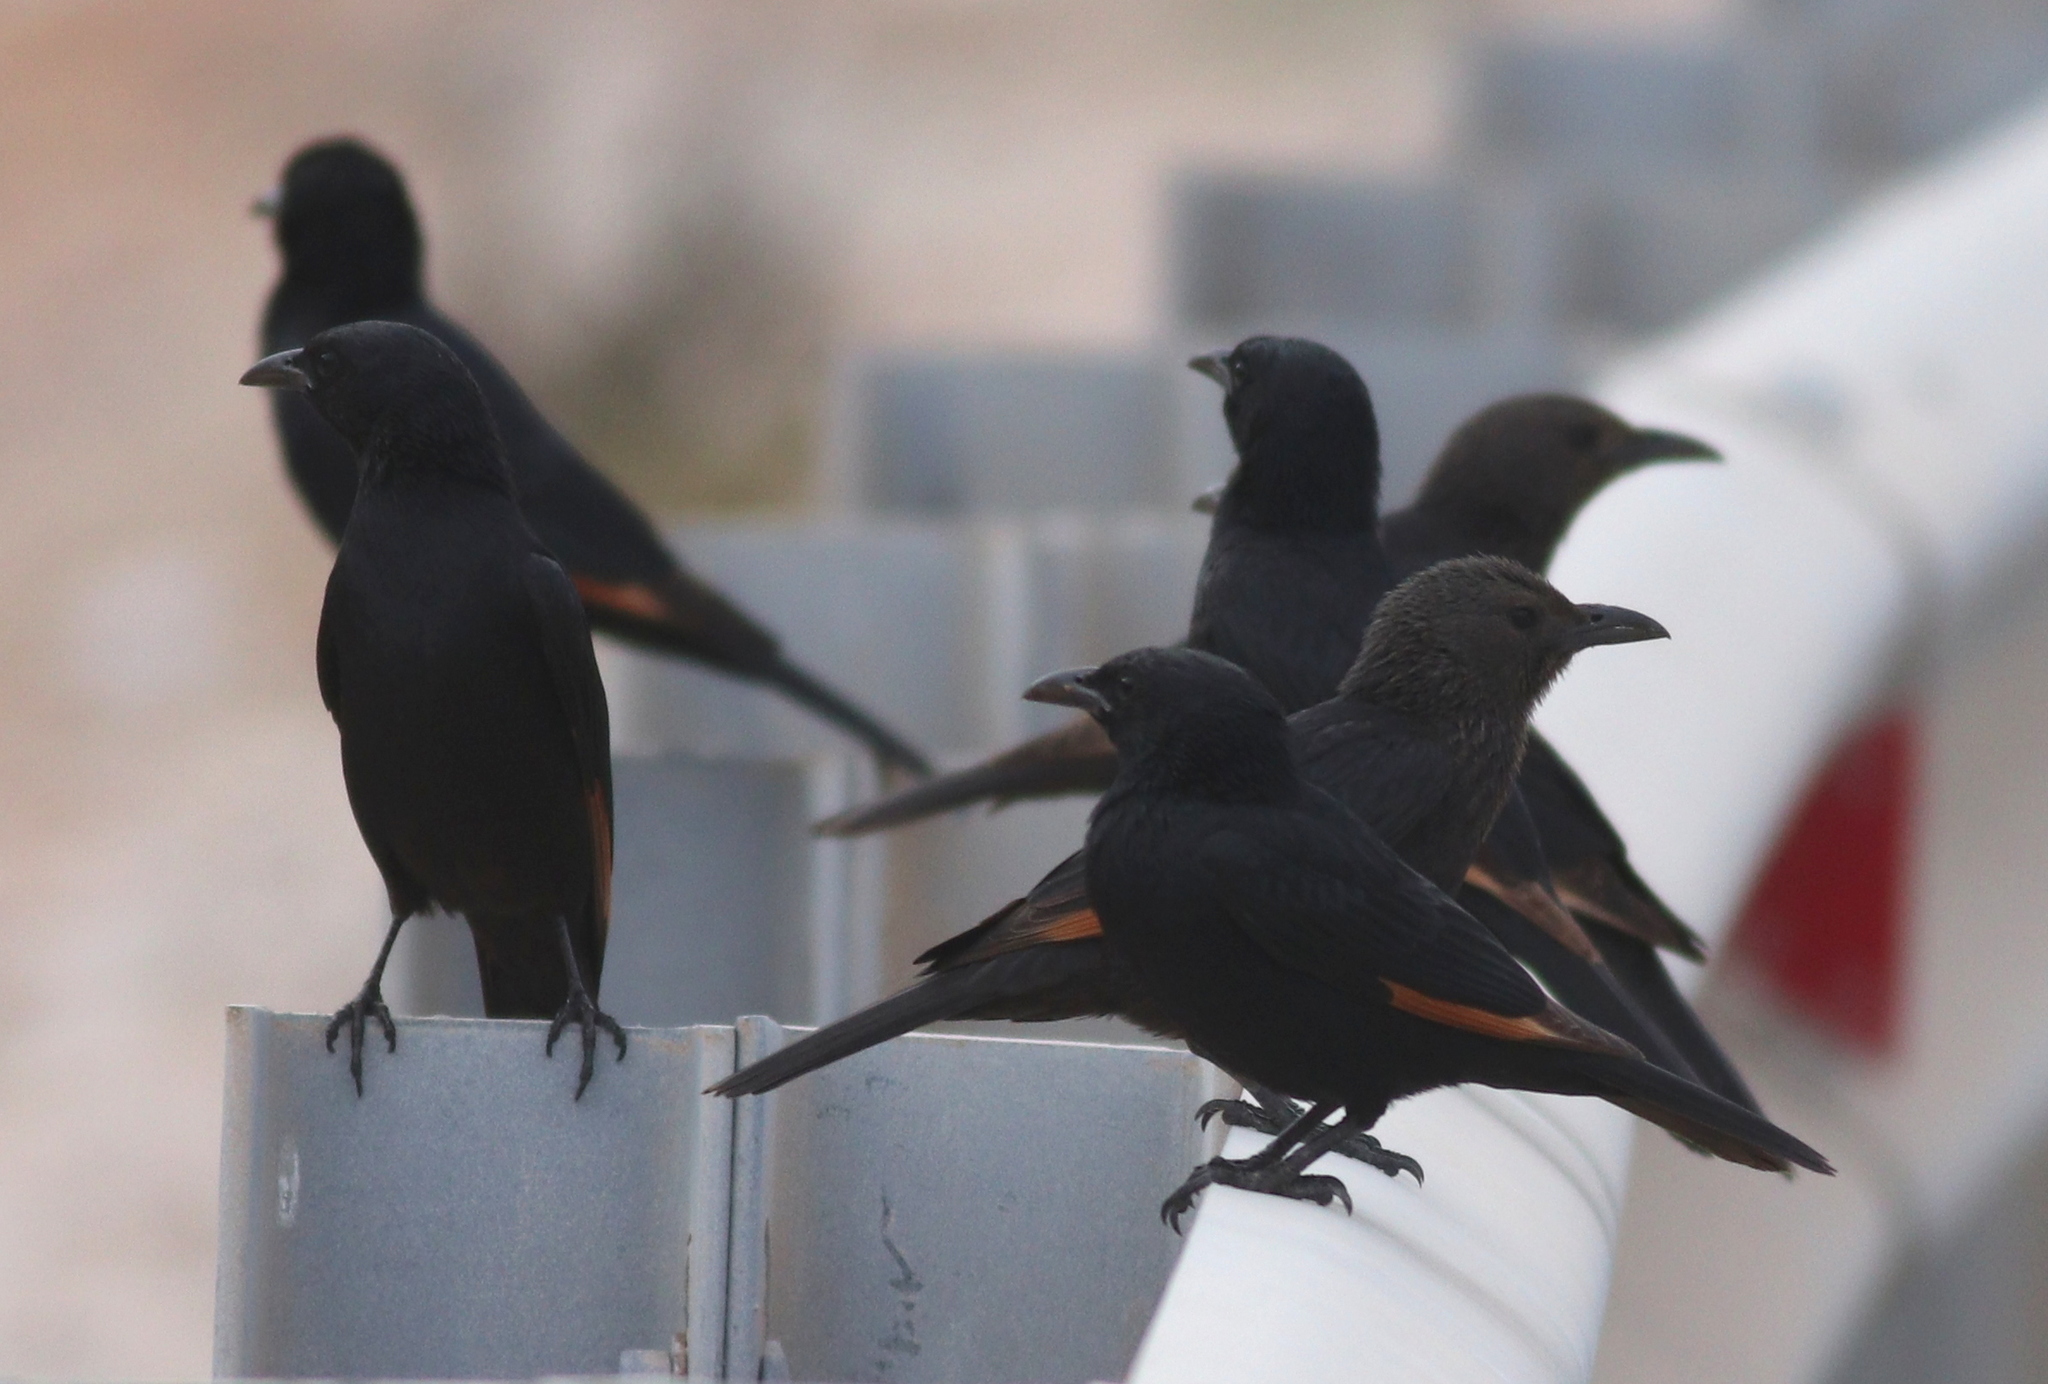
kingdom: Animalia
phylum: Chordata
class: Aves
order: Passeriformes
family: Sturnidae
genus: Onychognathus
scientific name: Onychognathus tristramii
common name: Tristram's starling
